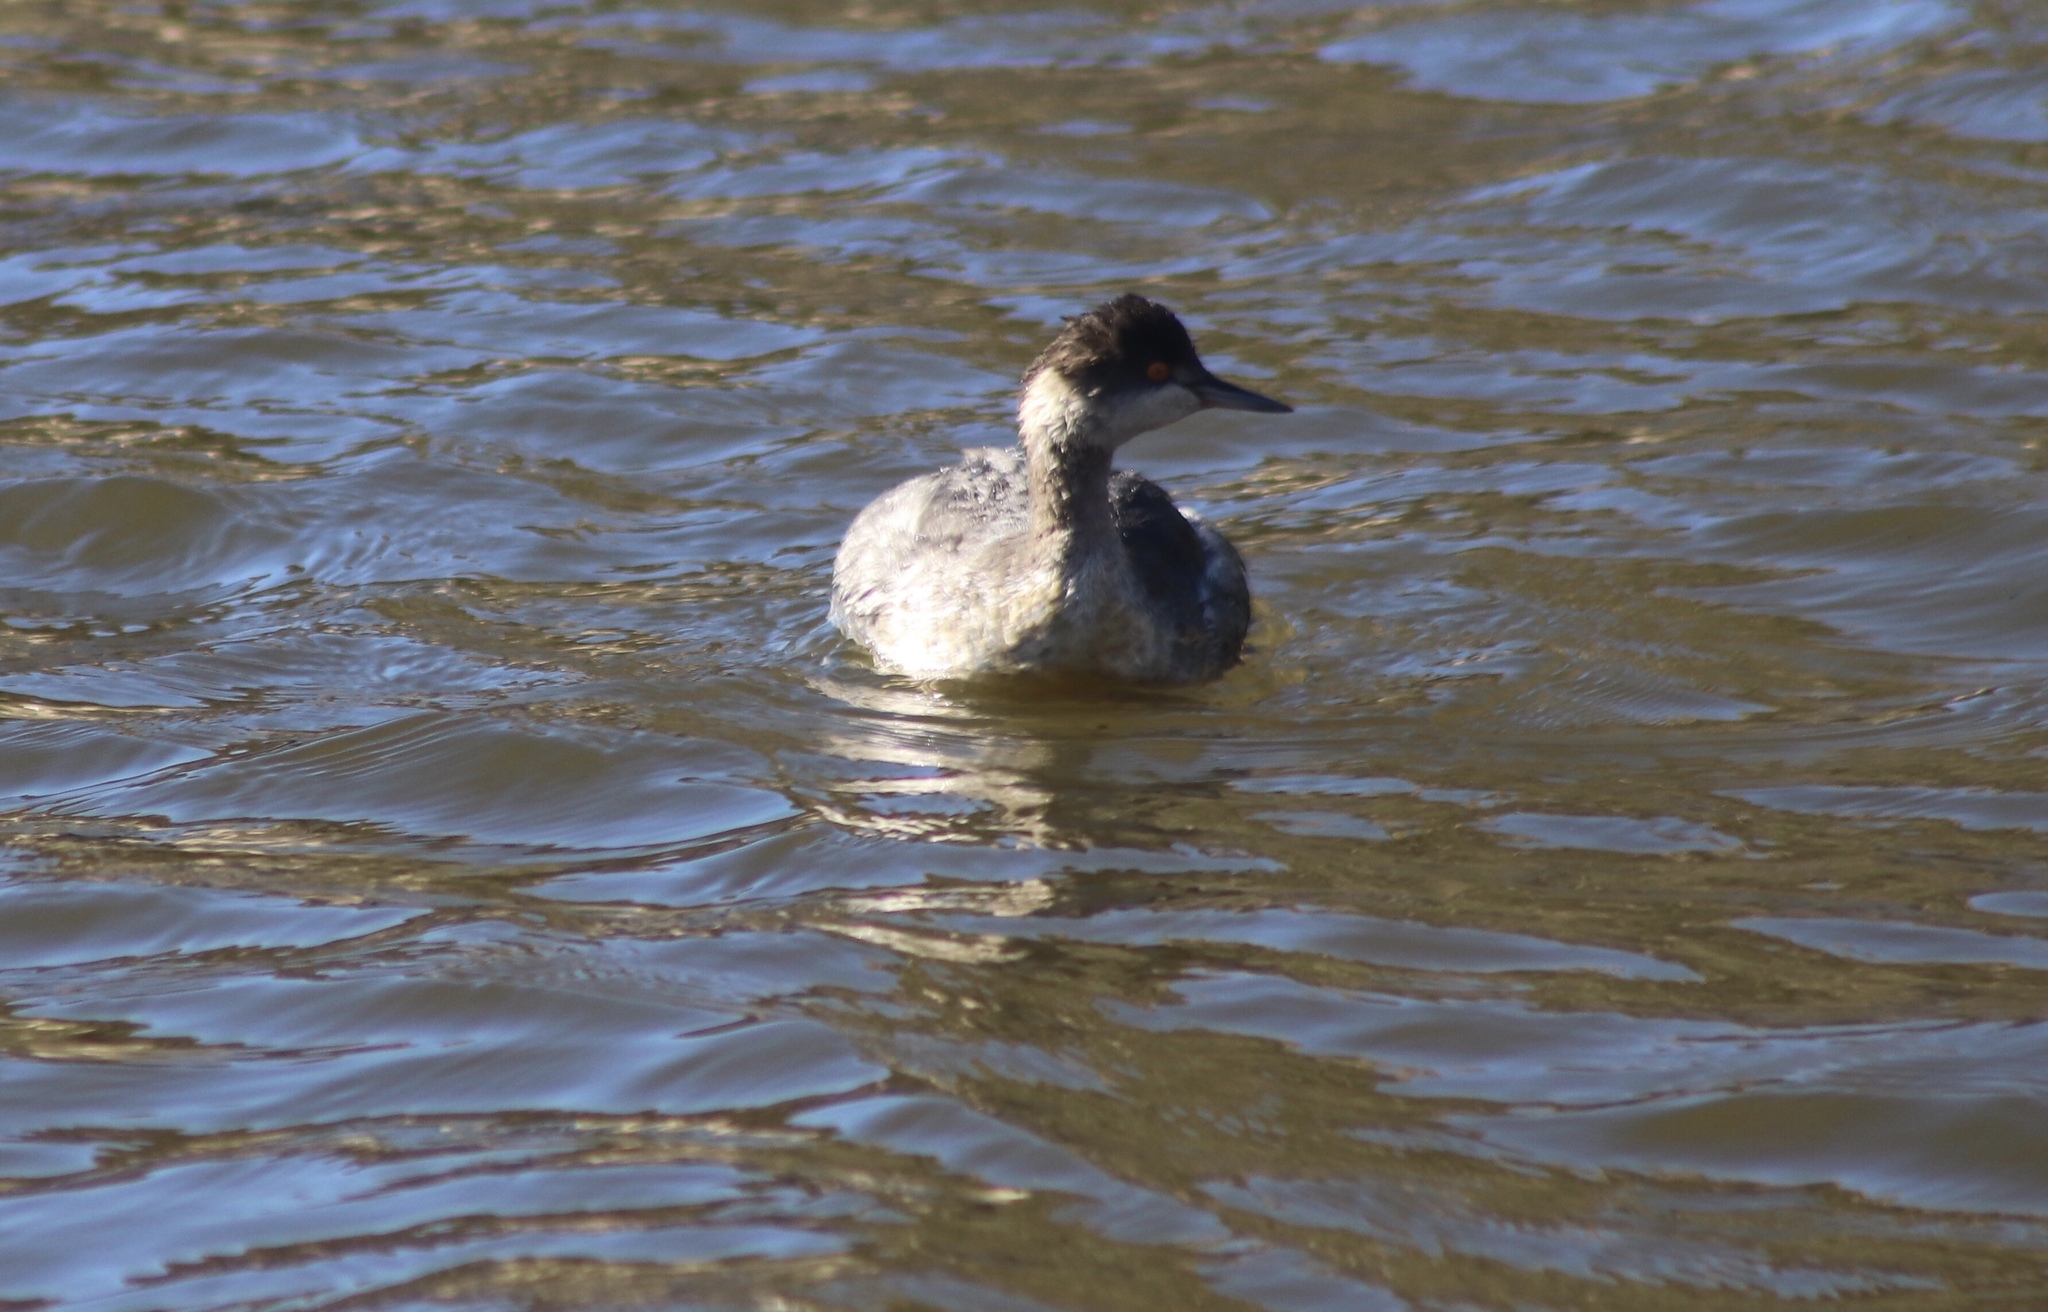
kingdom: Animalia
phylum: Chordata
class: Aves
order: Podicipediformes
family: Podicipedidae
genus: Podiceps
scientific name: Podiceps nigricollis
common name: Black-necked grebe
